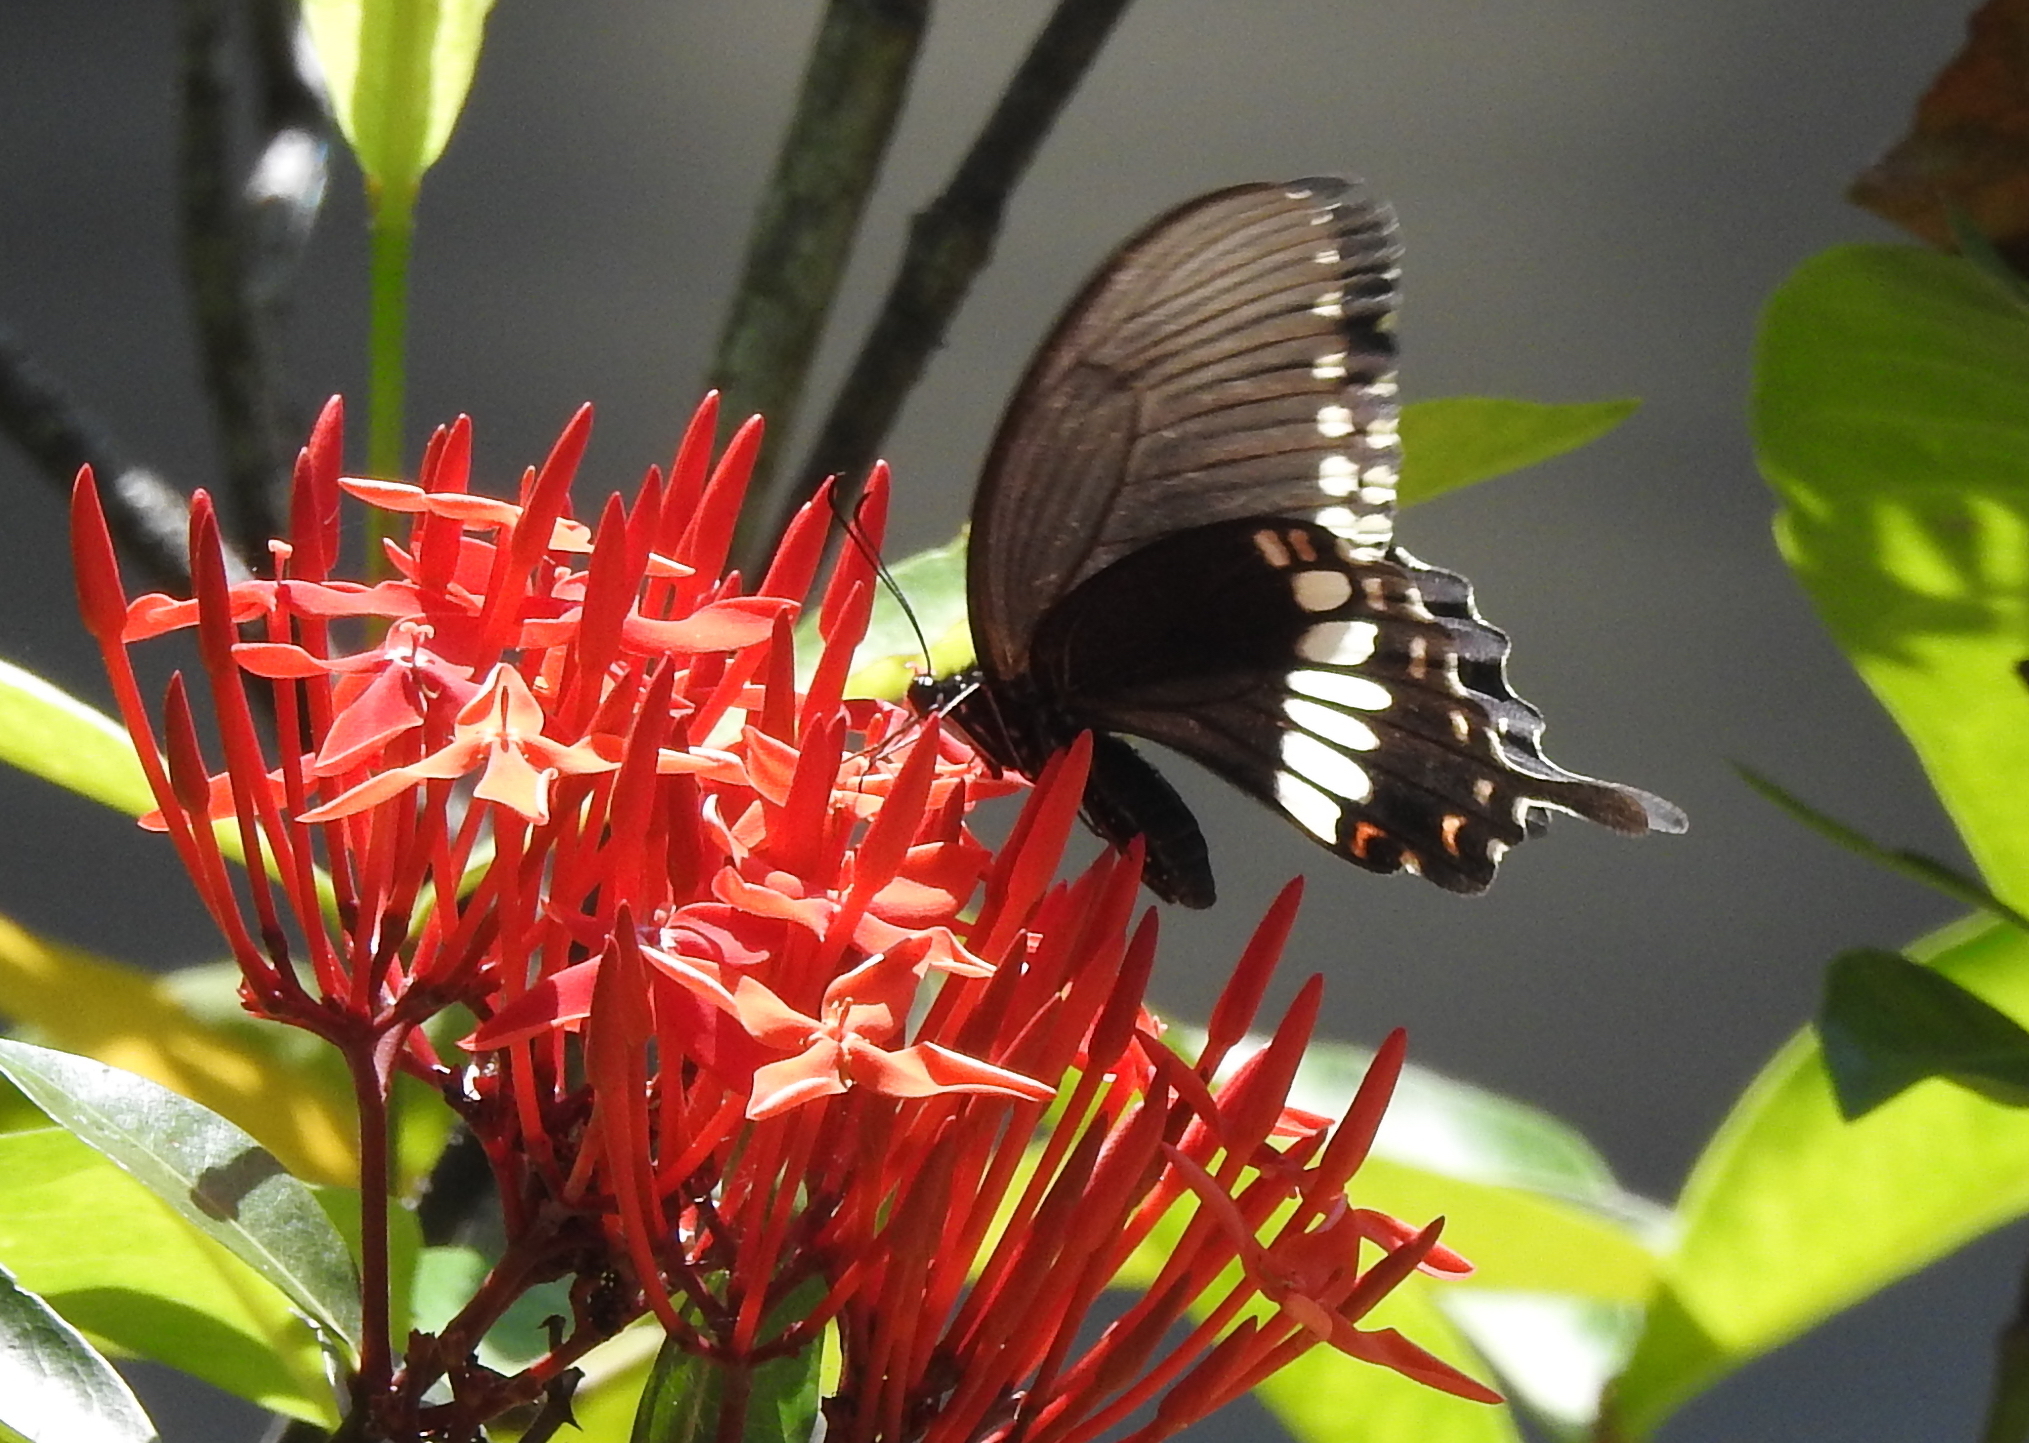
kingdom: Animalia
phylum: Arthropoda
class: Insecta
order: Lepidoptera
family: Papilionidae
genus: Papilio
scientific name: Papilio polytes
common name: Common mormon
